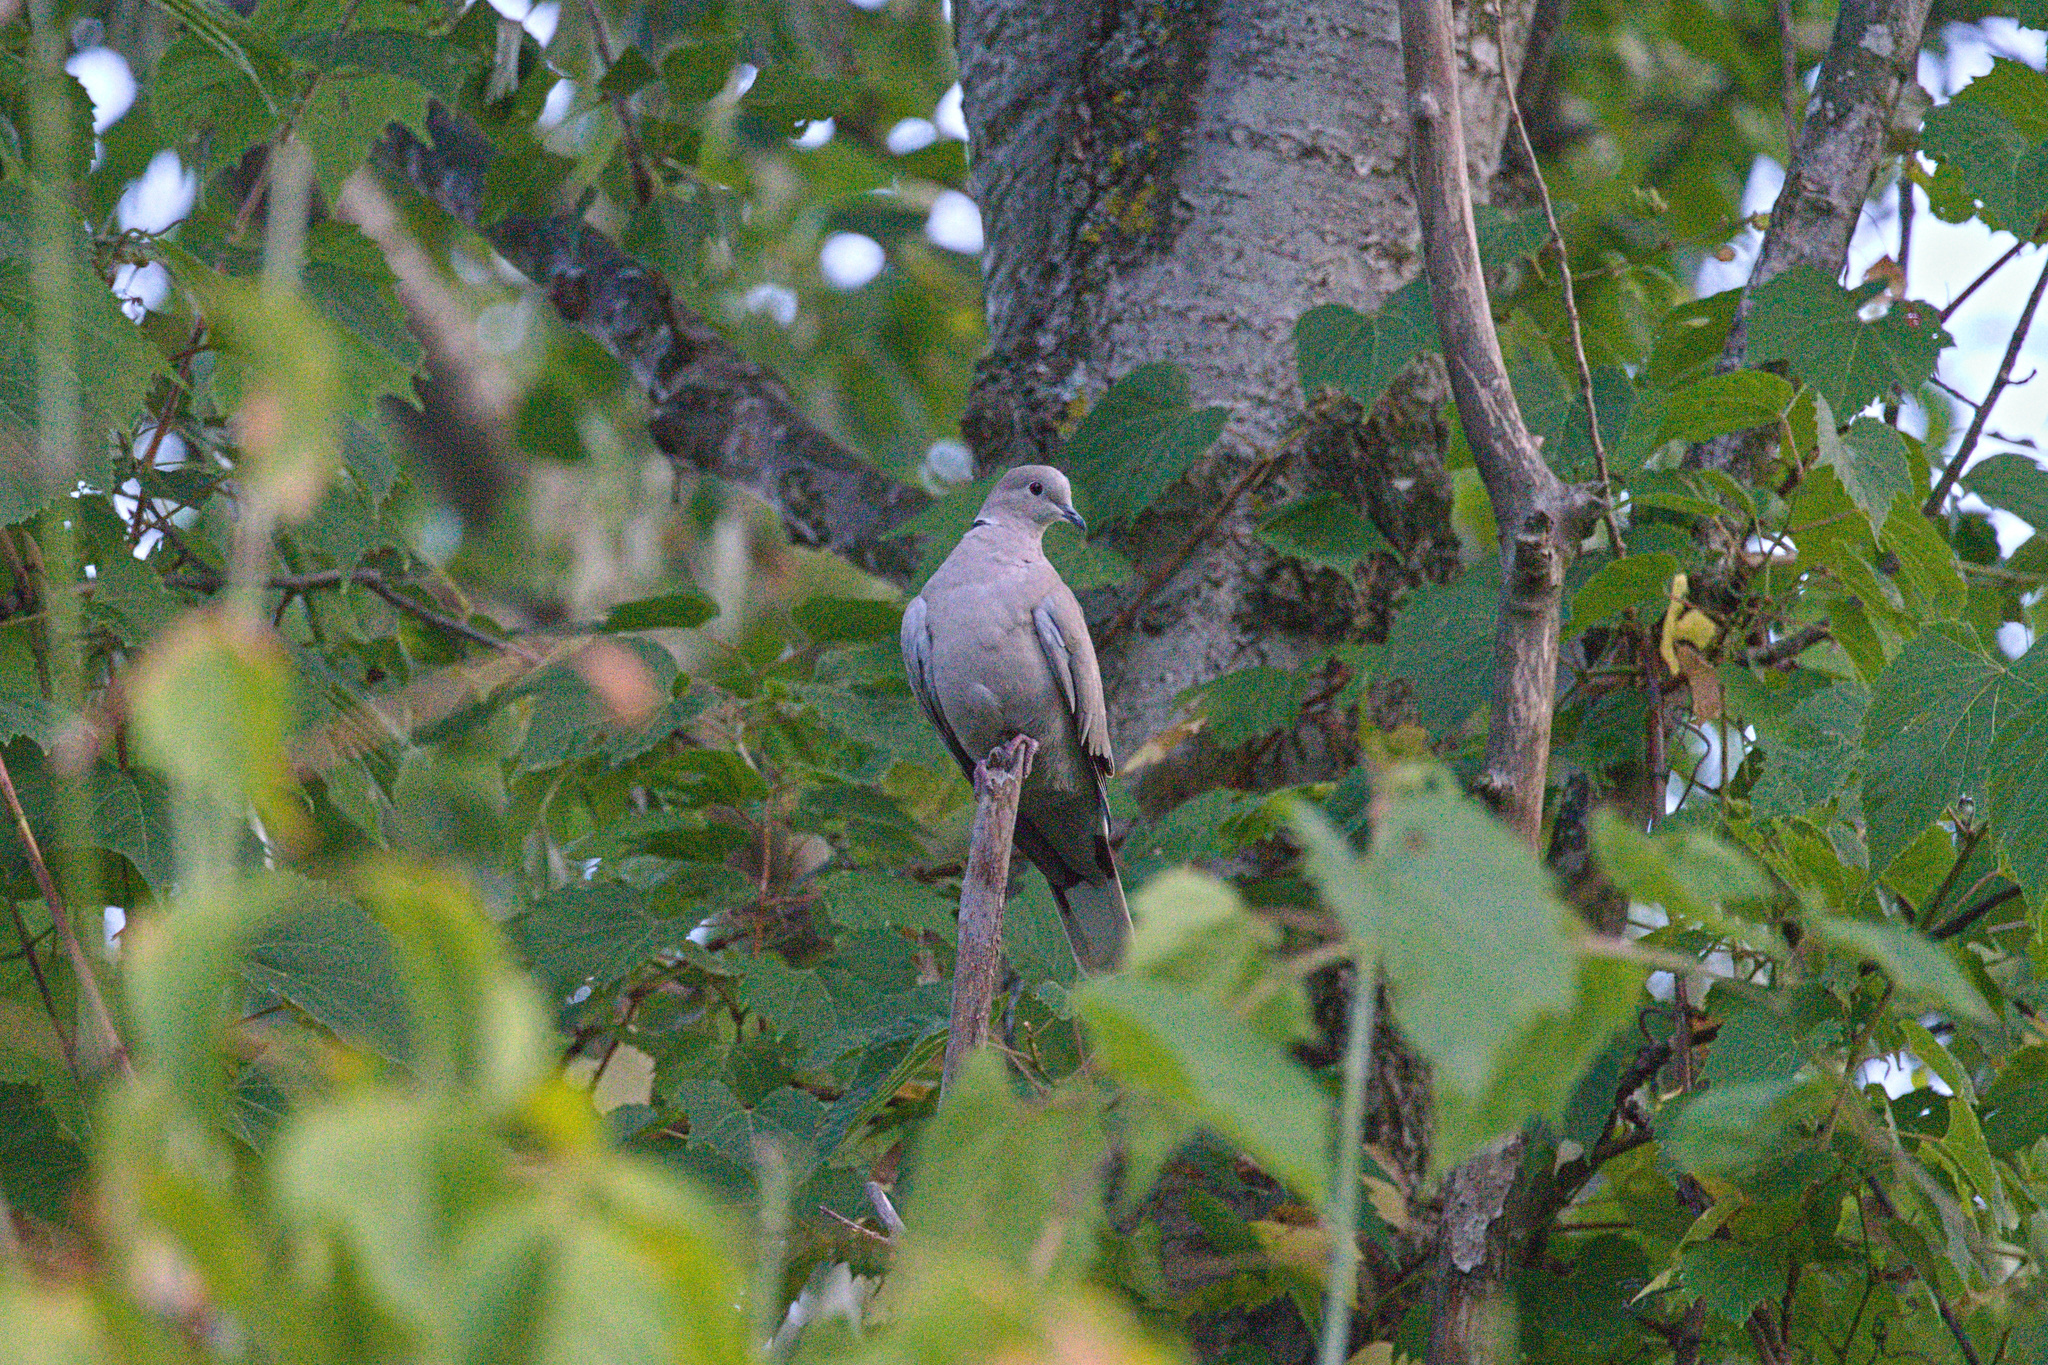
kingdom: Animalia
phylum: Chordata
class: Aves
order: Columbiformes
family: Columbidae
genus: Streptopelia
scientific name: Streptopelia decaocto
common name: Eurasian collared dove
